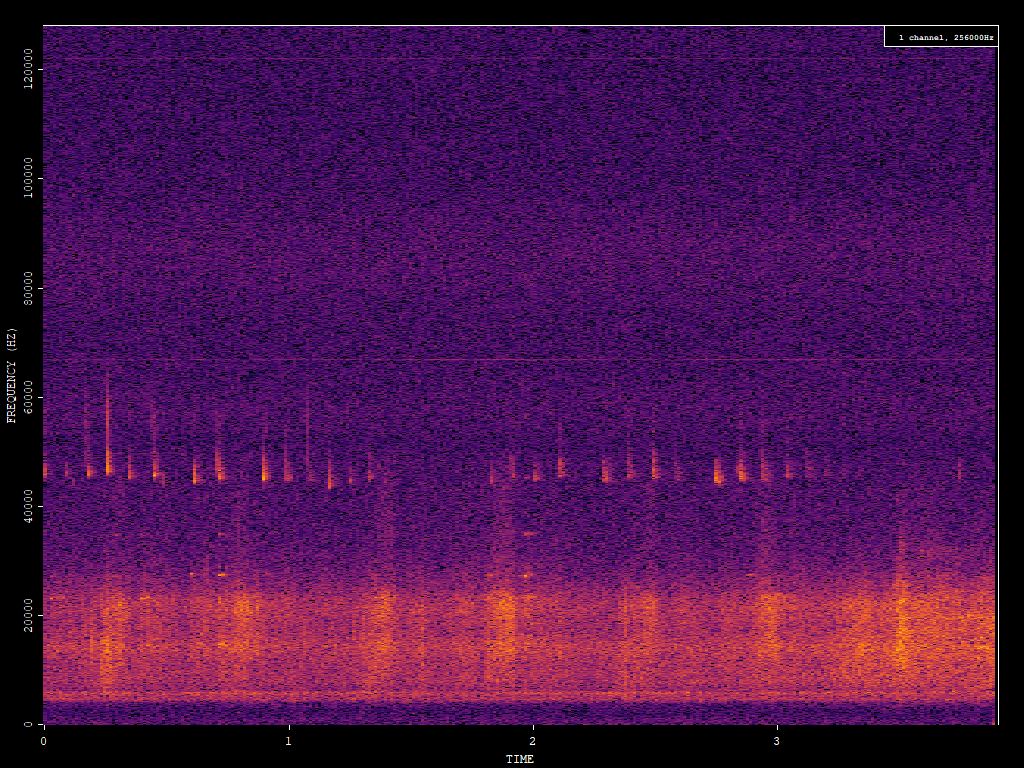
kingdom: Animalia
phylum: Chordata
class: Mammalia
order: Chiroptera
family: Vespertilionidae
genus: Pipistrellus
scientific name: Pipistrellus pipistrellus
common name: Common pipistrelle
